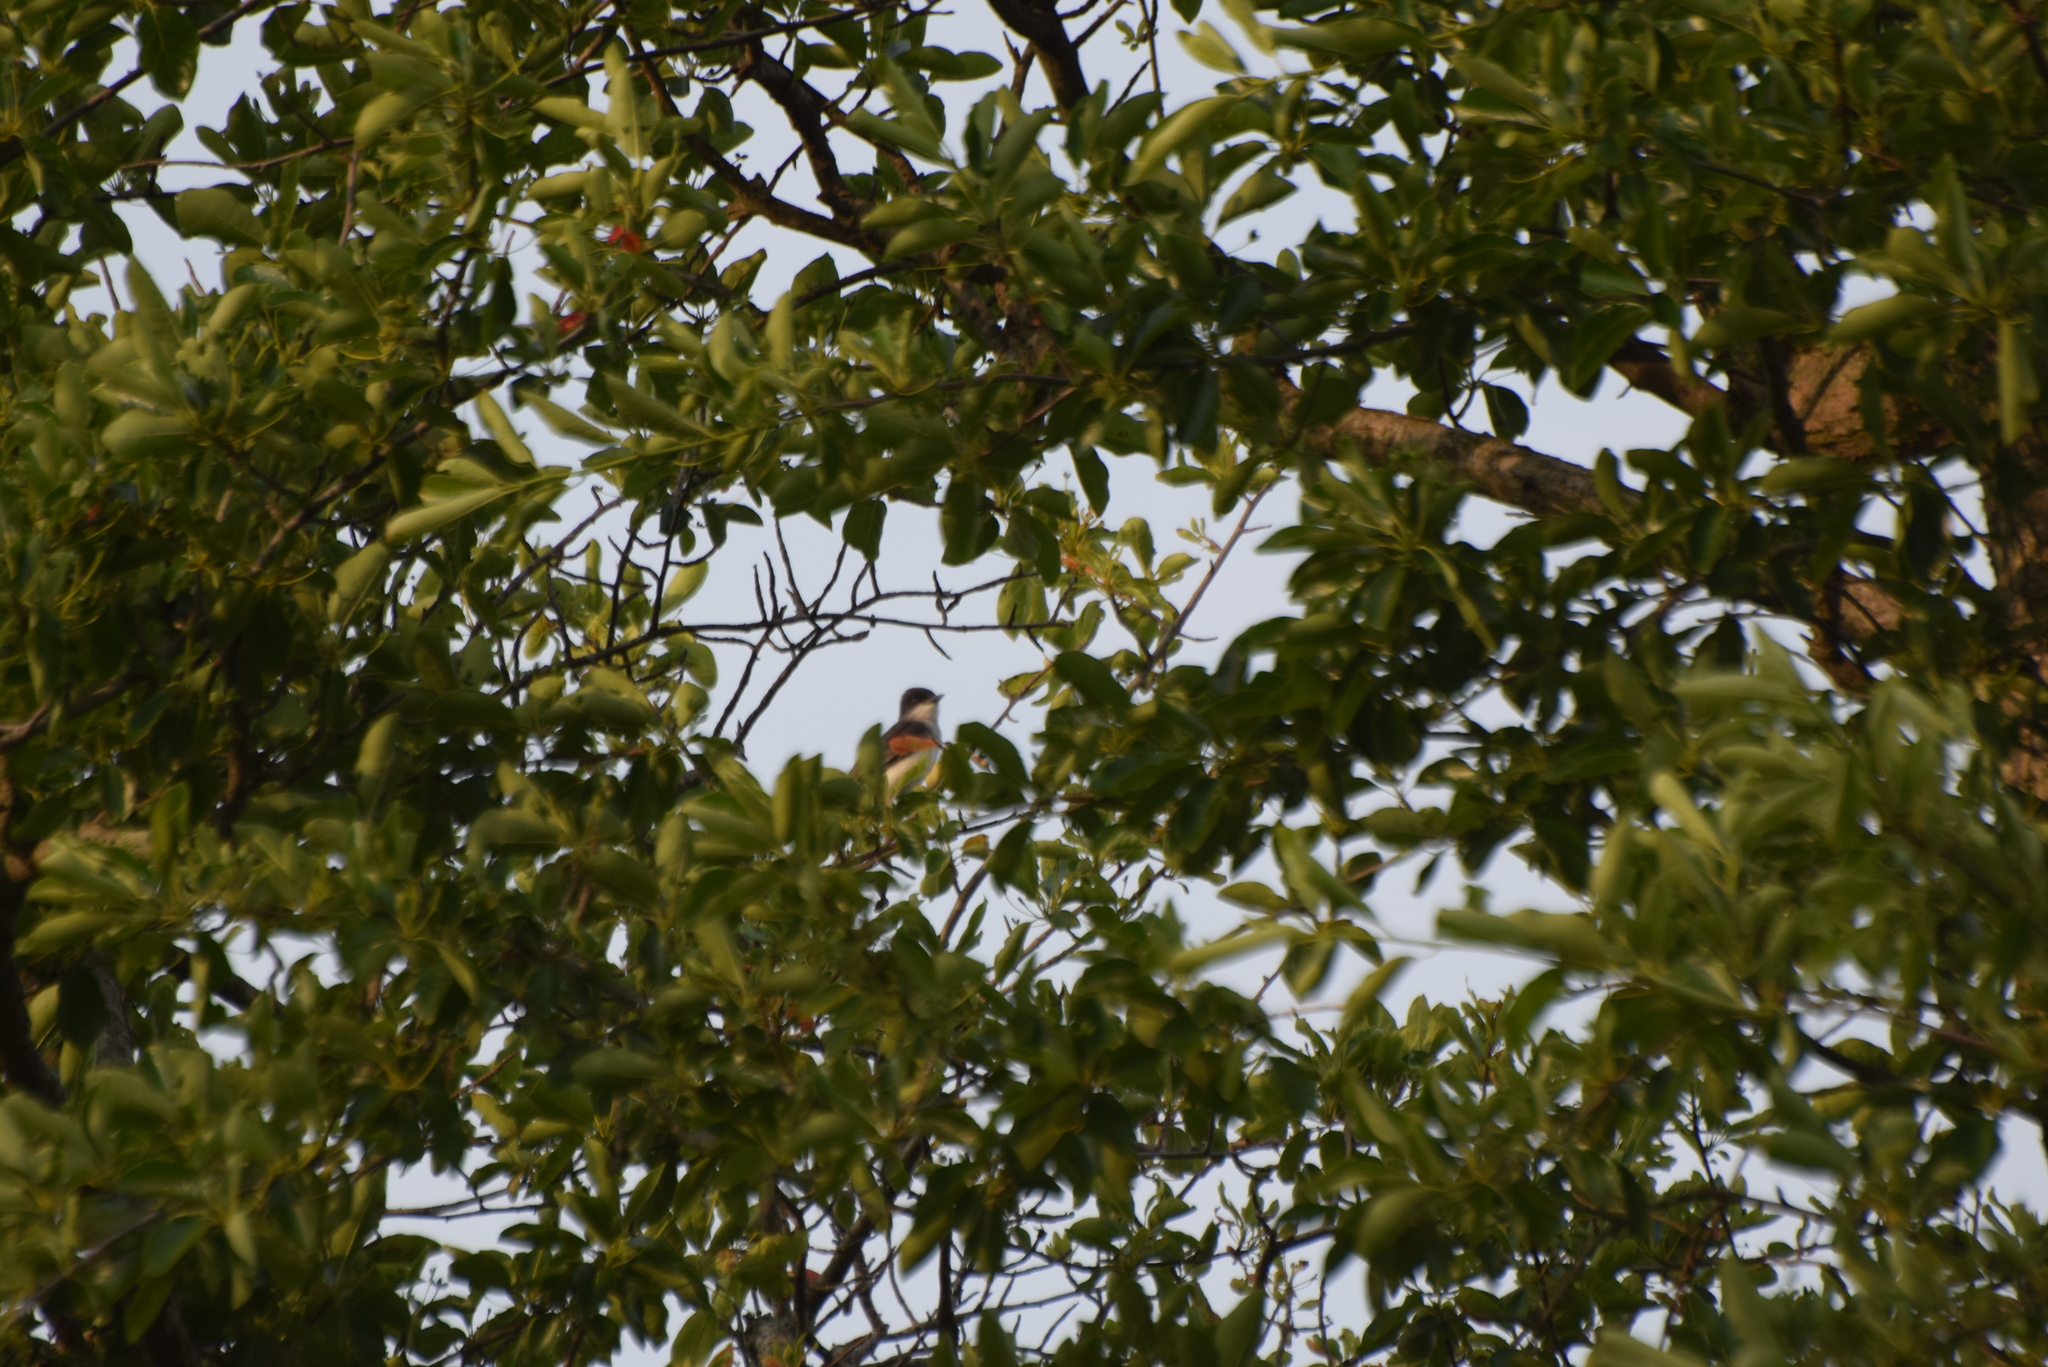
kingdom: Animalia
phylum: Chordata
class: Aves
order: Passeriformes
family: Tyrannidae
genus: Tyrannus
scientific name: Tyrannus tyrannus
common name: Eastern kingbird
